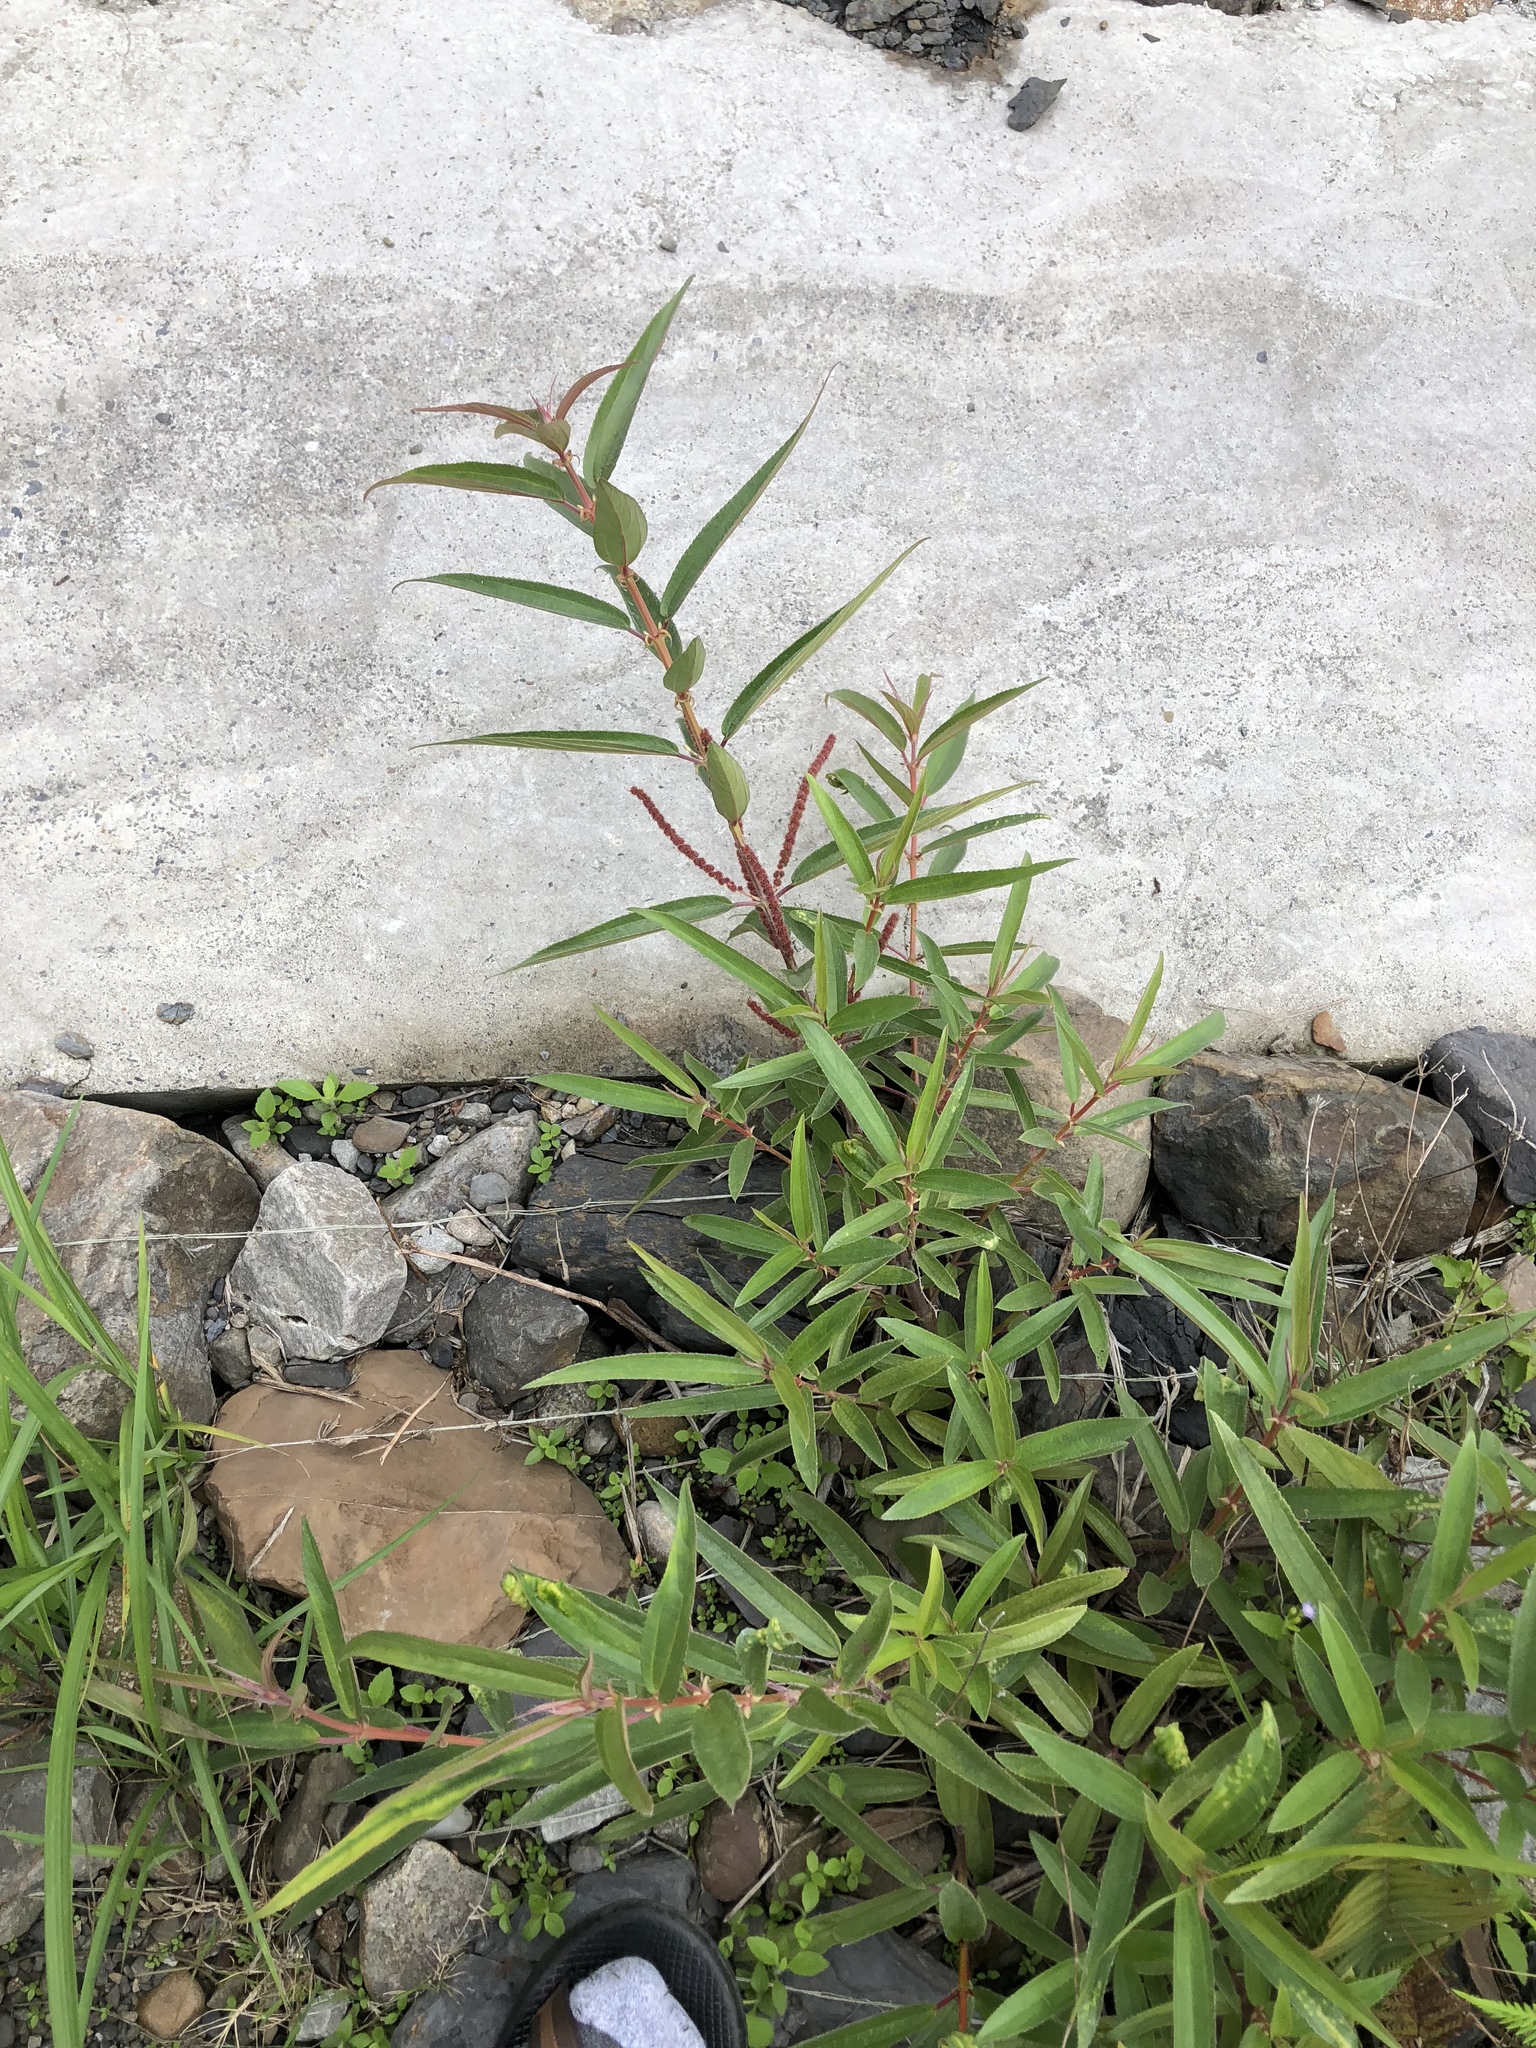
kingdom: Plantae
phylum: Tracheophyta
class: Magnoliopsida
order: Rosales
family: Urticaceae
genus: Boehmeria
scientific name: Boehmeria densiflora
